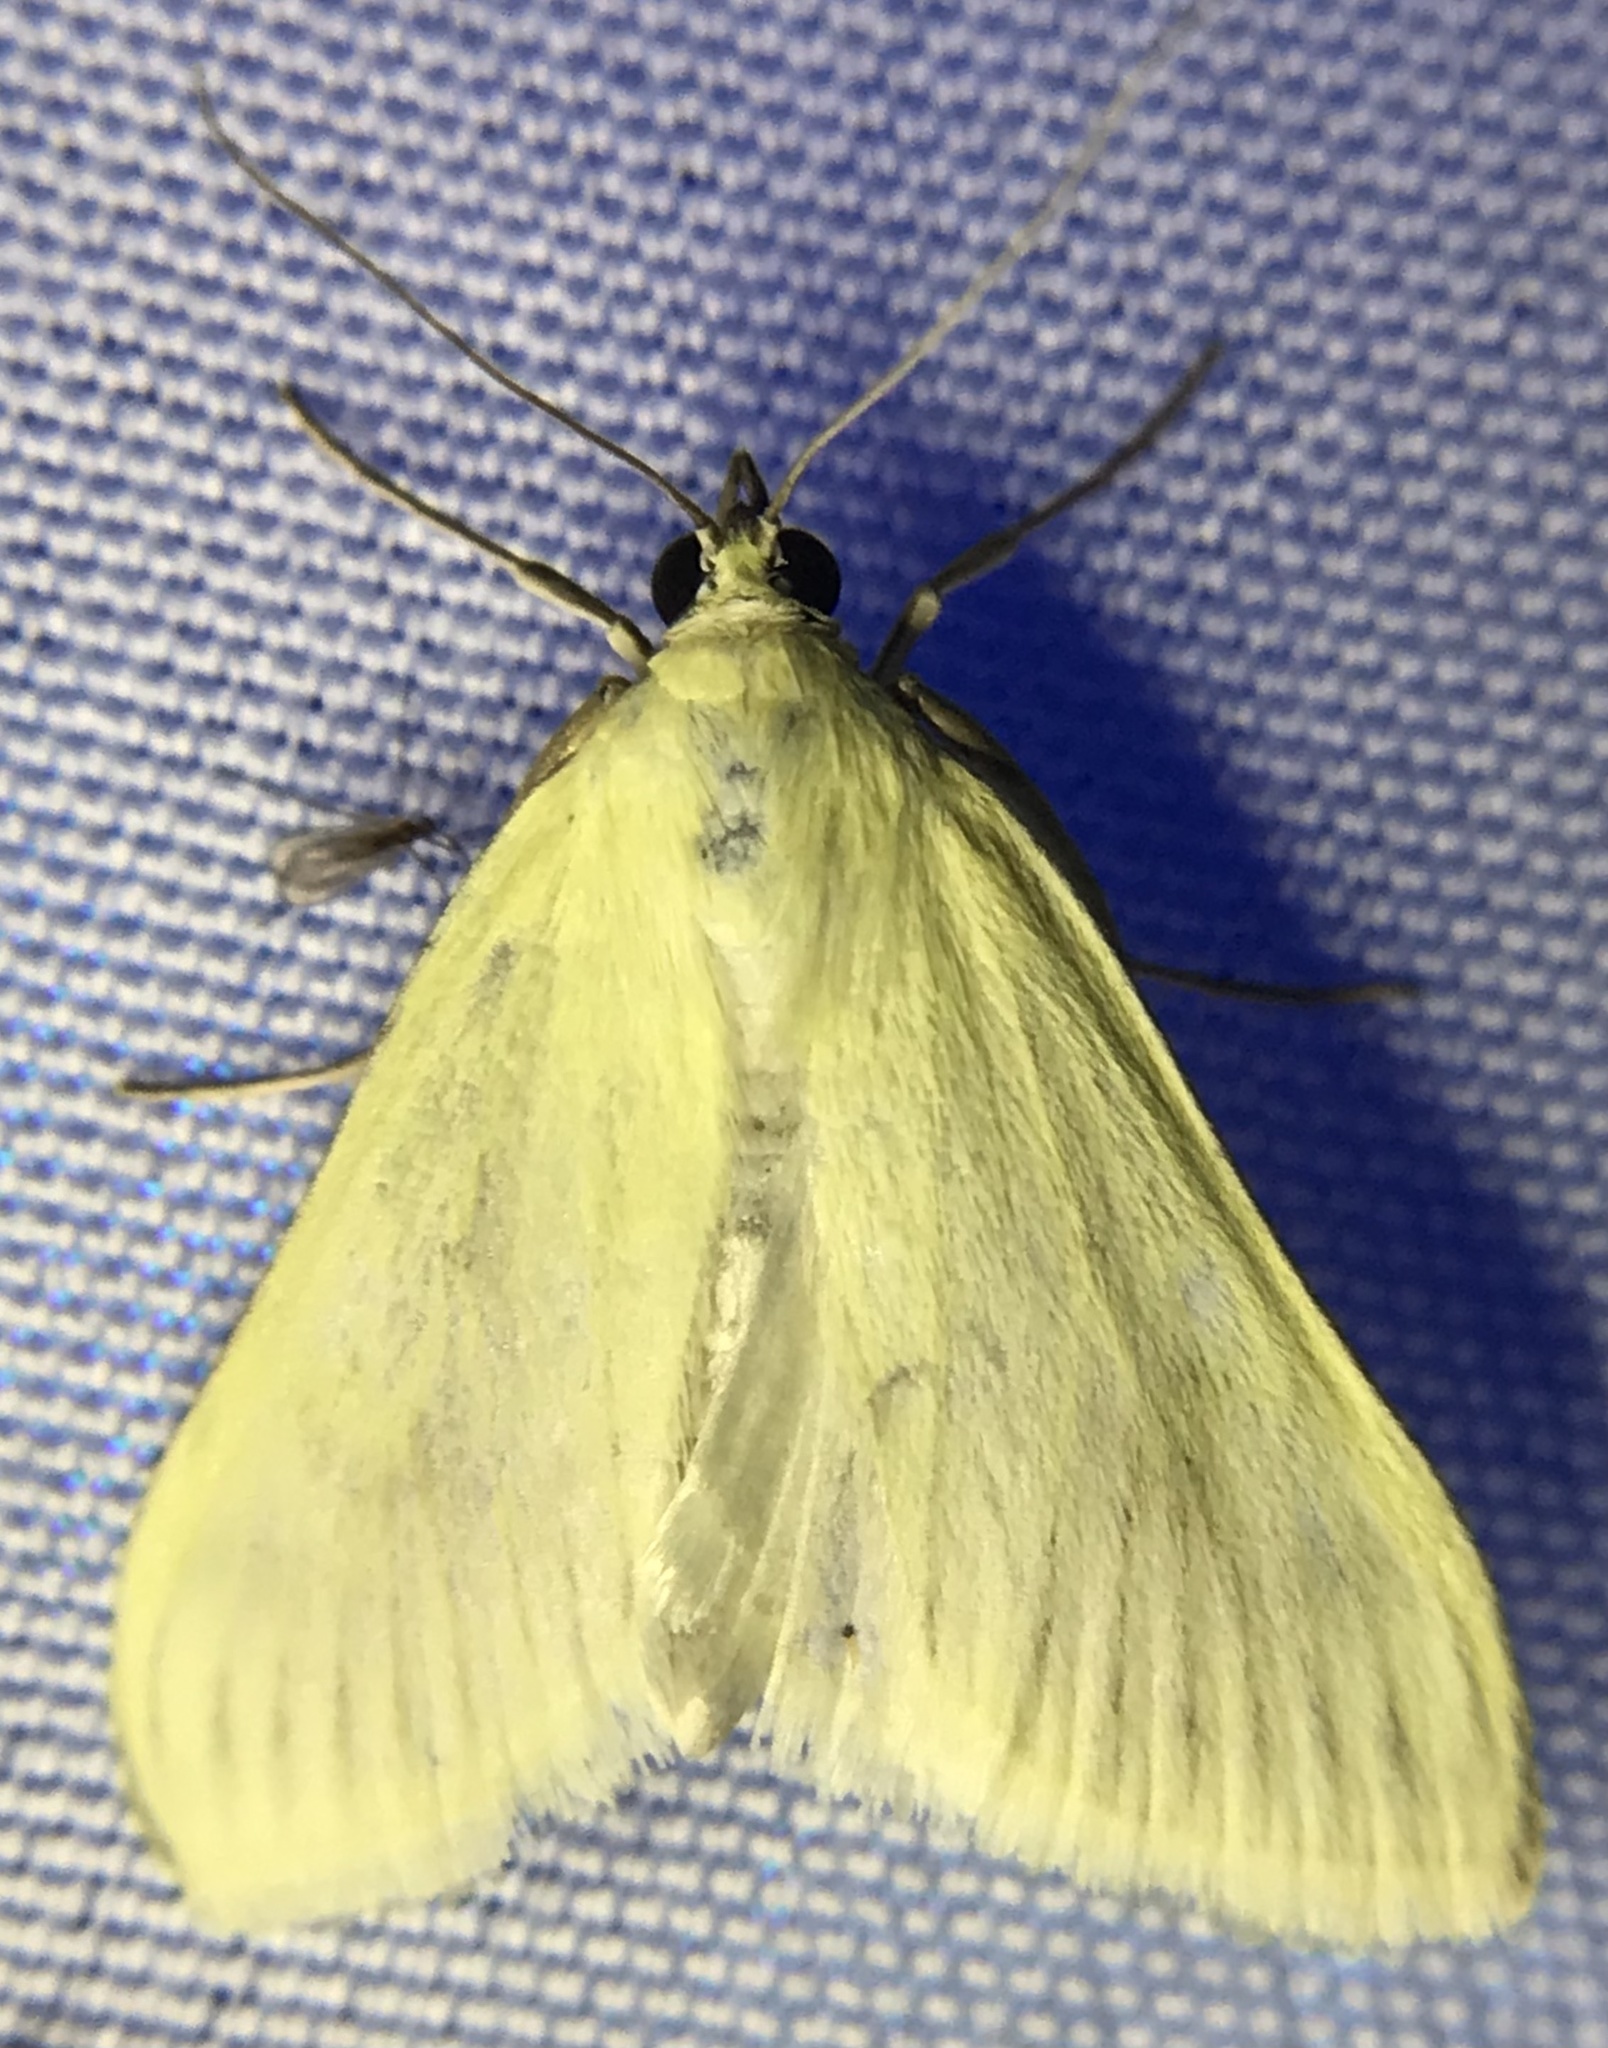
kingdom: Animalia
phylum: Arthropoda
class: Insecta
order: Lepidoptera
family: Crambidae
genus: Sitochroa
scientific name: Sitochroa palealis
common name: Greenish-yellow sitochroa moth
